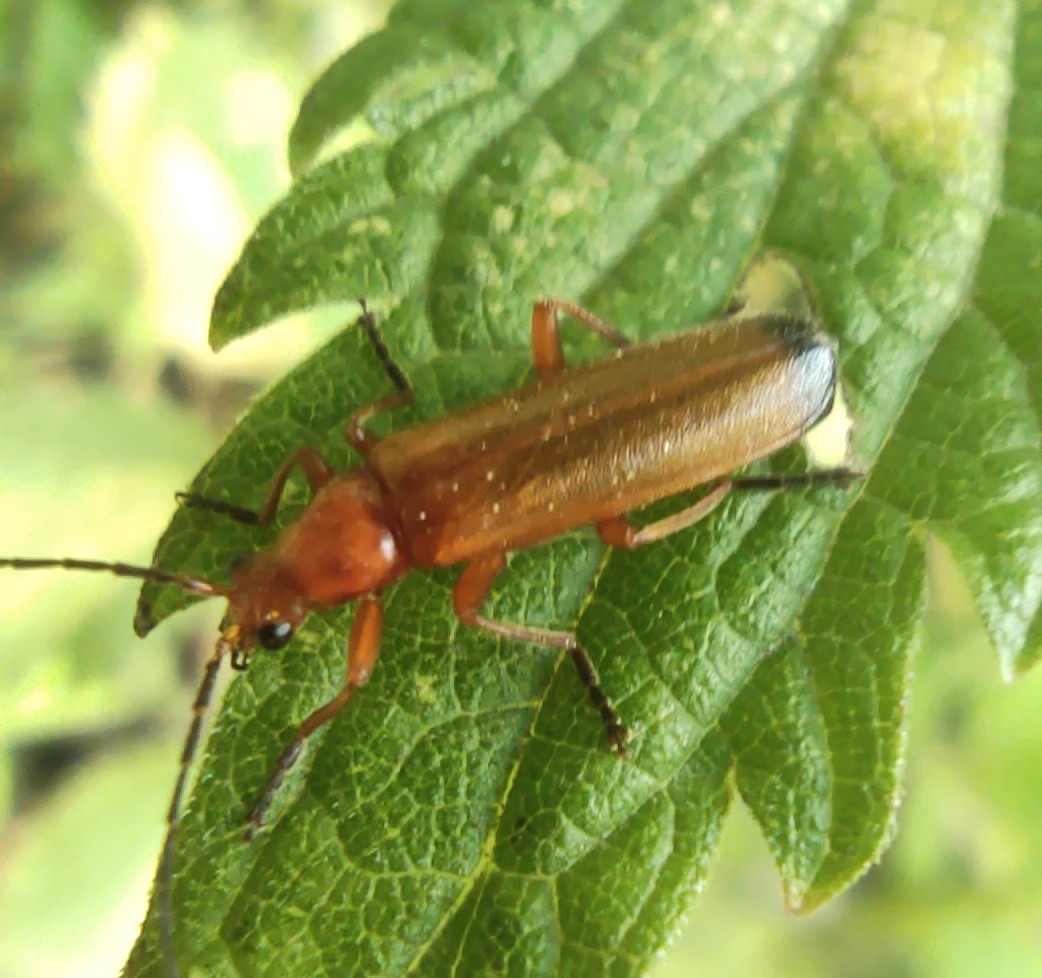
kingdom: Animalia
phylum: Arthropoda
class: Insecta
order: Coleoptera
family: Cantharidae
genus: Rhagonycha
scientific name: Rhagonycha fulva
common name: Common red soldier beetle
